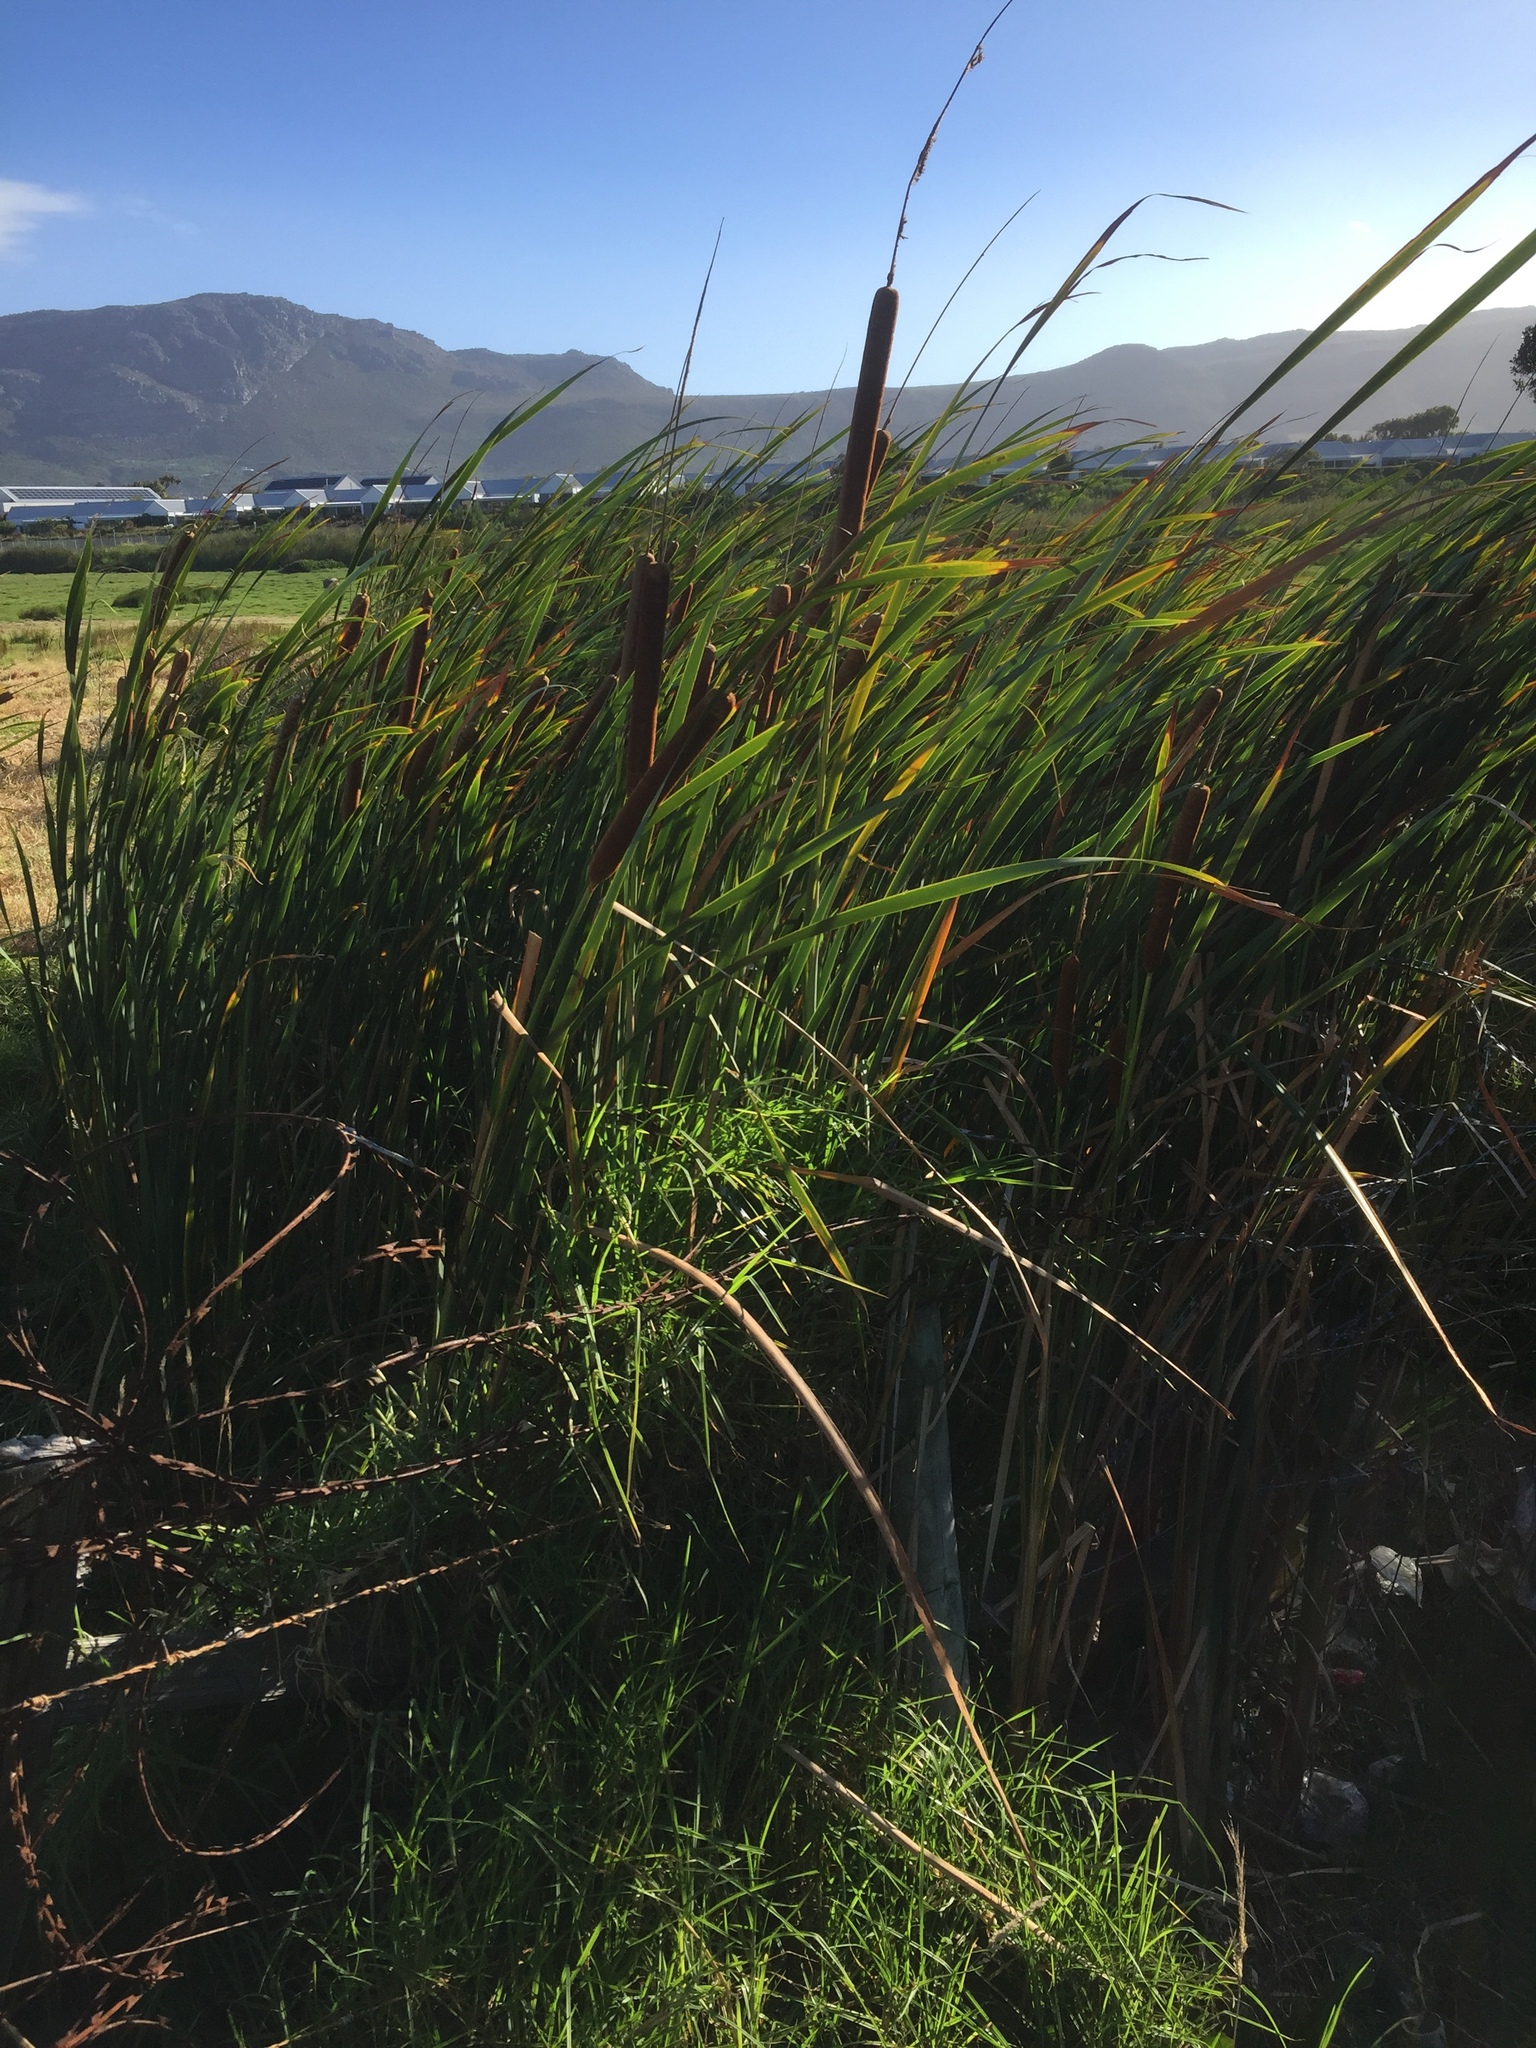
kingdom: Plantae
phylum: Tracheophyta
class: Liliopsida
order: Poales
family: Typhaceae
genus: Typha
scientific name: Typha capensis
